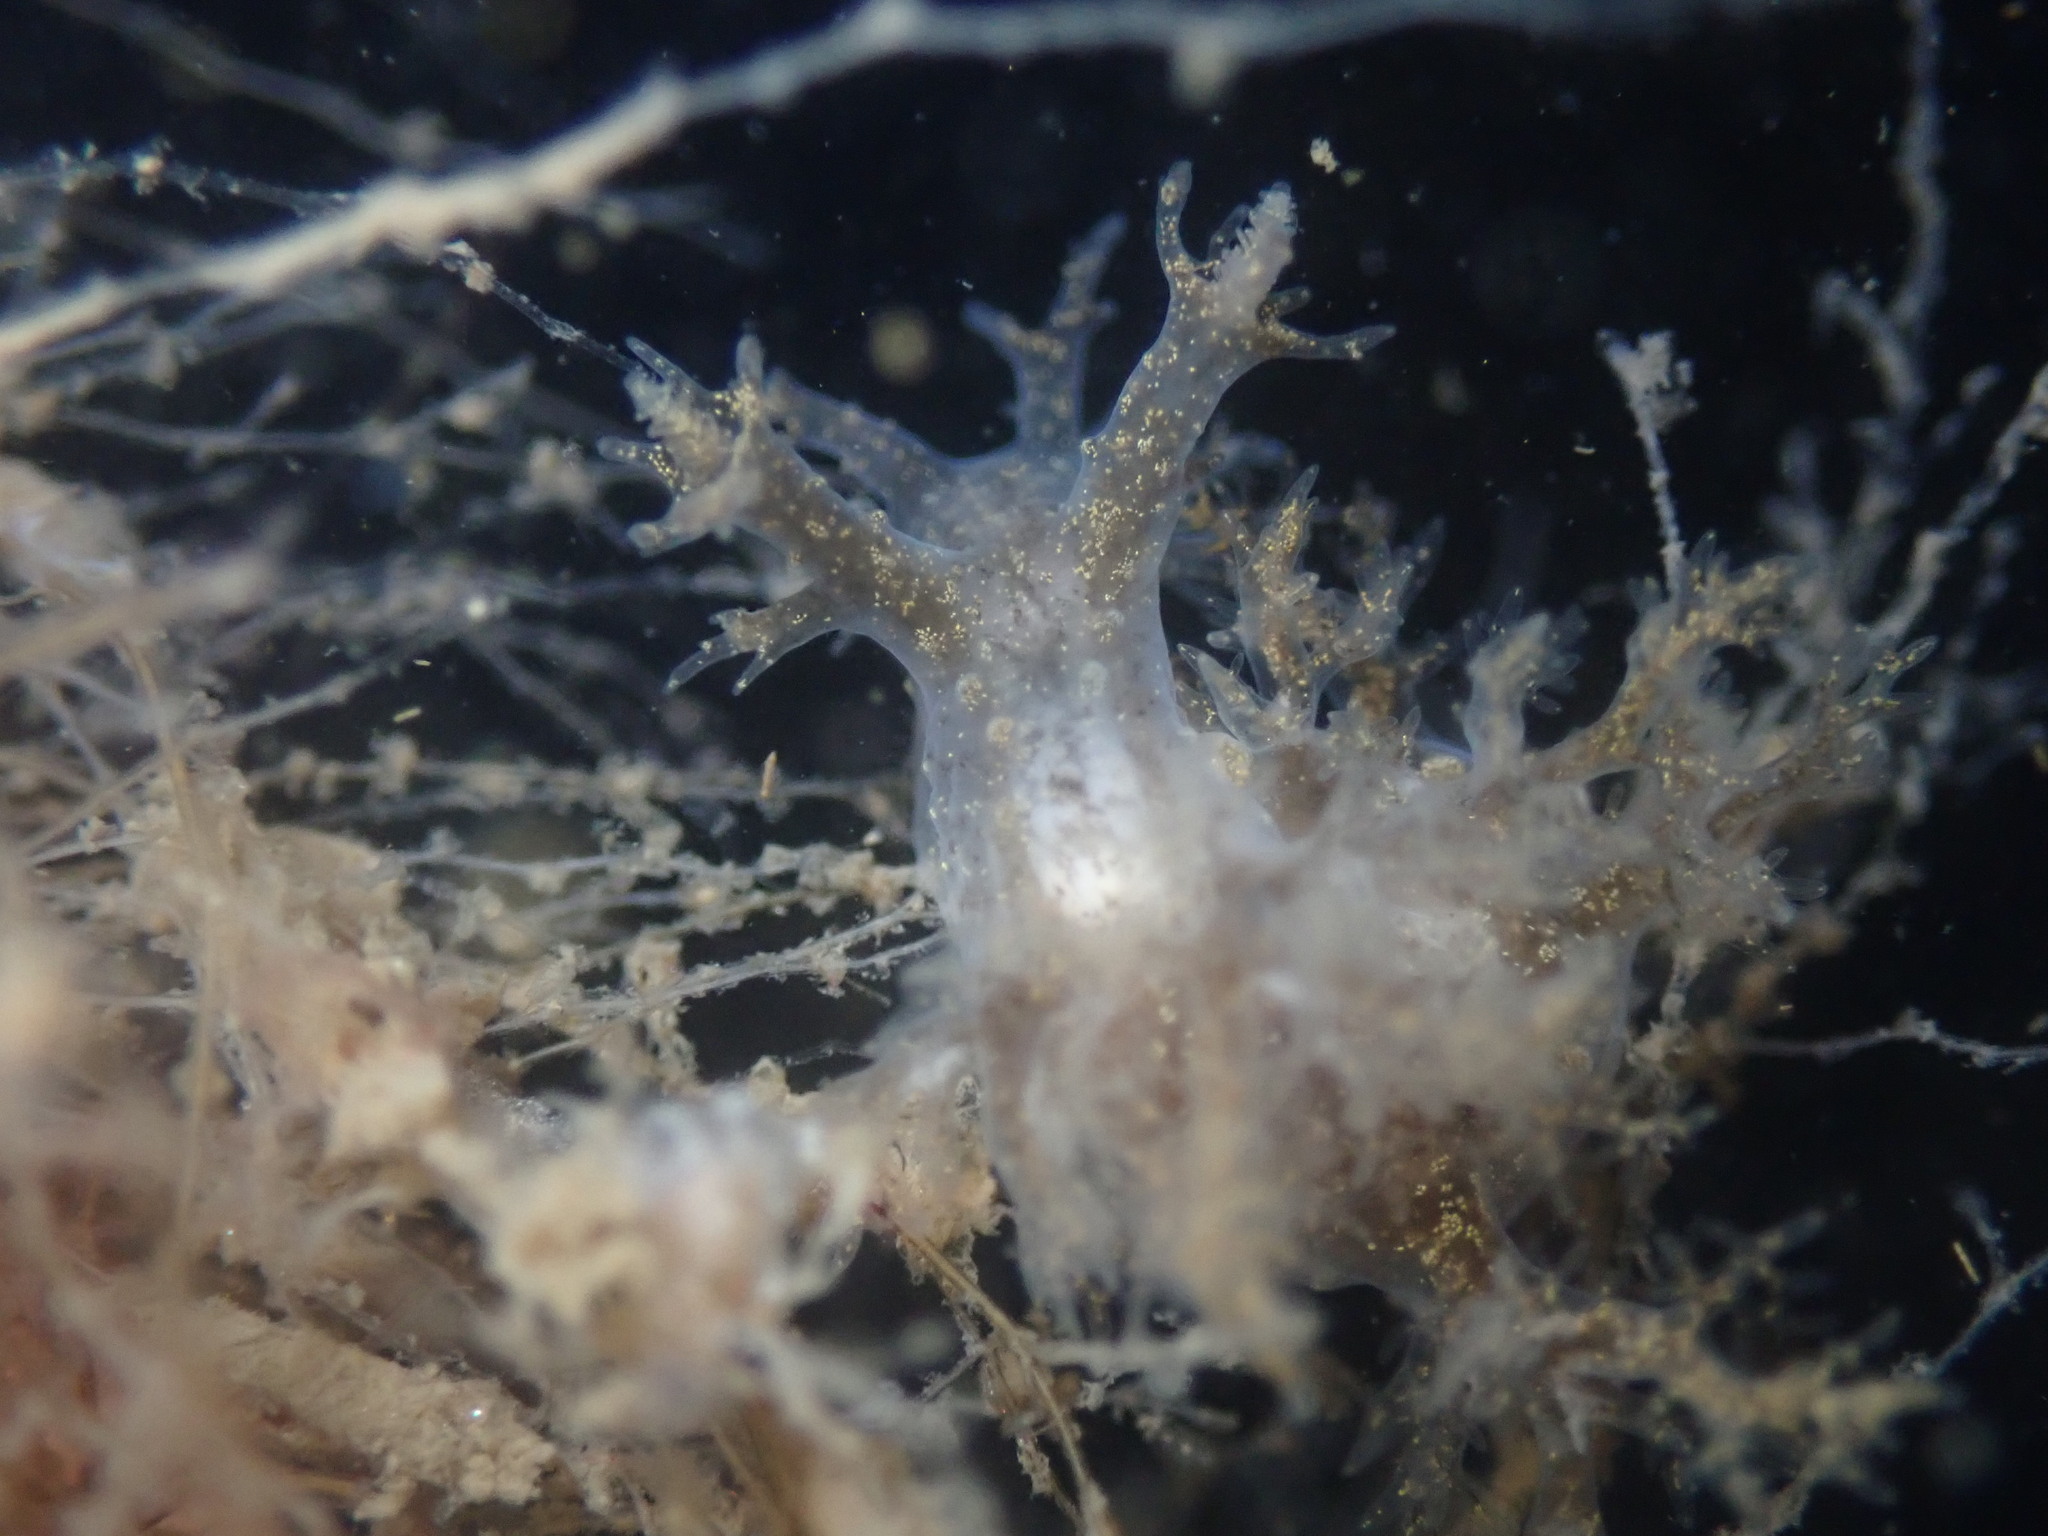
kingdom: Animalia
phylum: Mollusca
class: Gastropoda
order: Nudibranchia
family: Dendronotidae
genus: Dendronotus
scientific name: Dendronotus venustus
